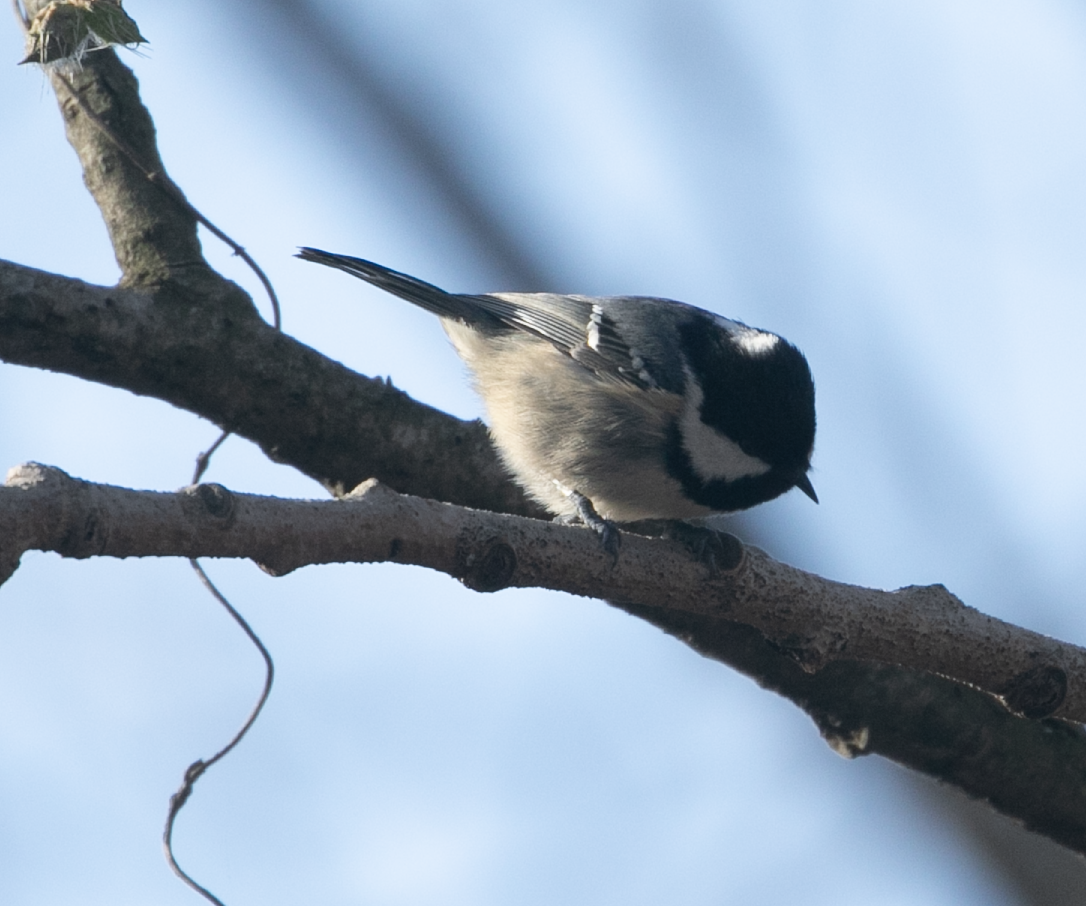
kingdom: Animalia
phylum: Chordata
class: Aves
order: Passeriformes
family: Paridae
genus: Periparus
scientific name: Periparus ater
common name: Coal tit
